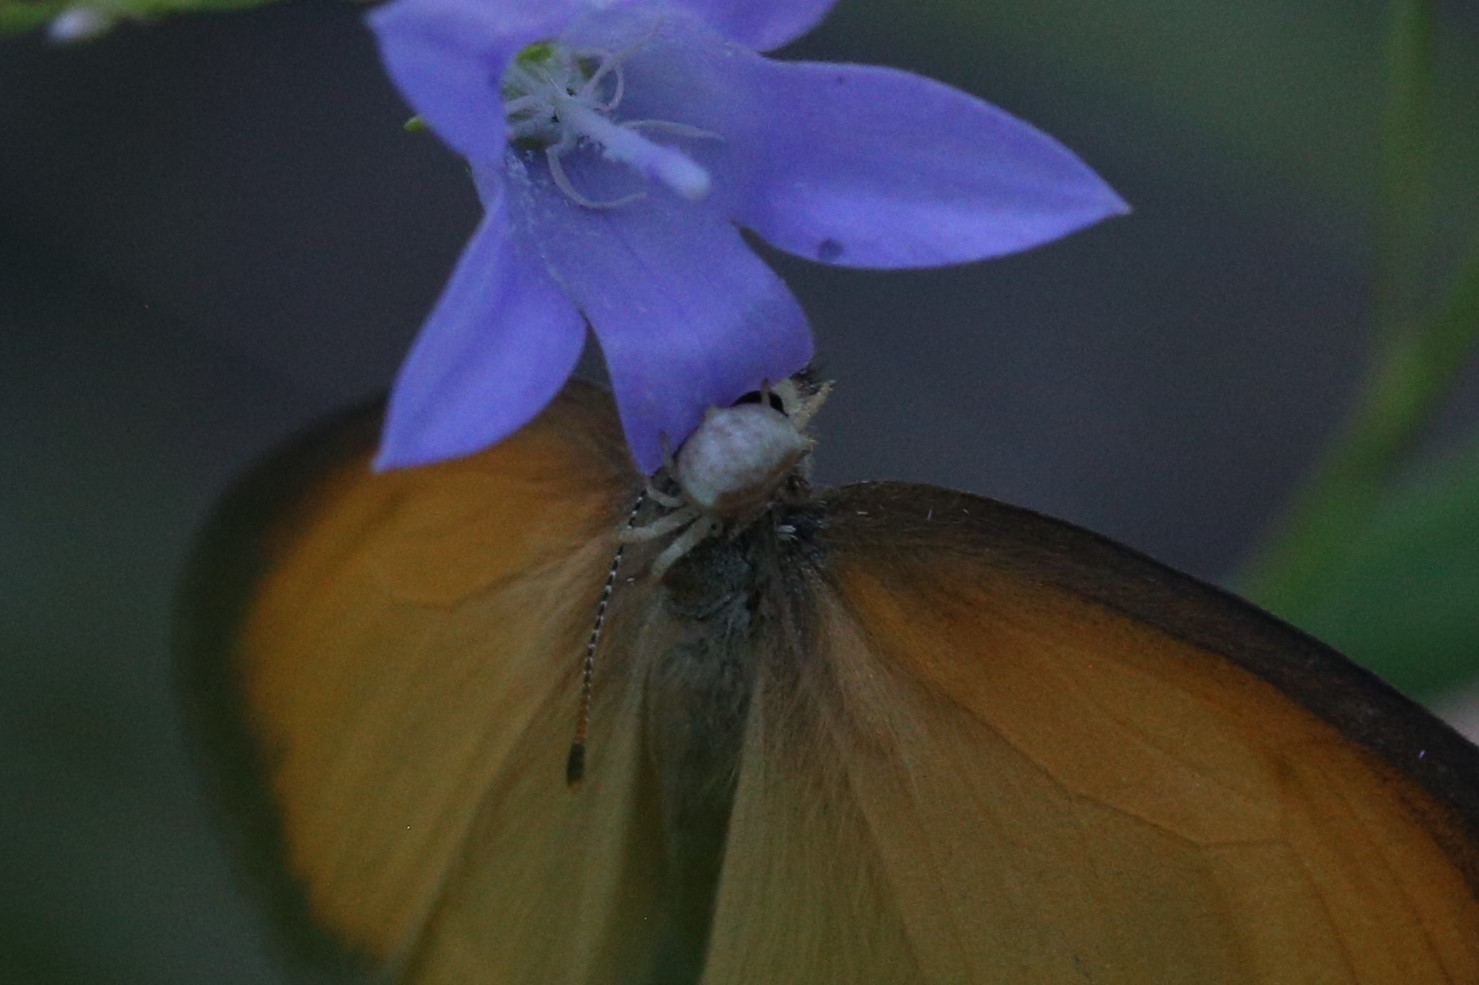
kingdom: Animalia
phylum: Arthropoda
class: Arachnida
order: Araneae
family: Thomisidae
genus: Thomisus
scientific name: Thomisus spectabilis
